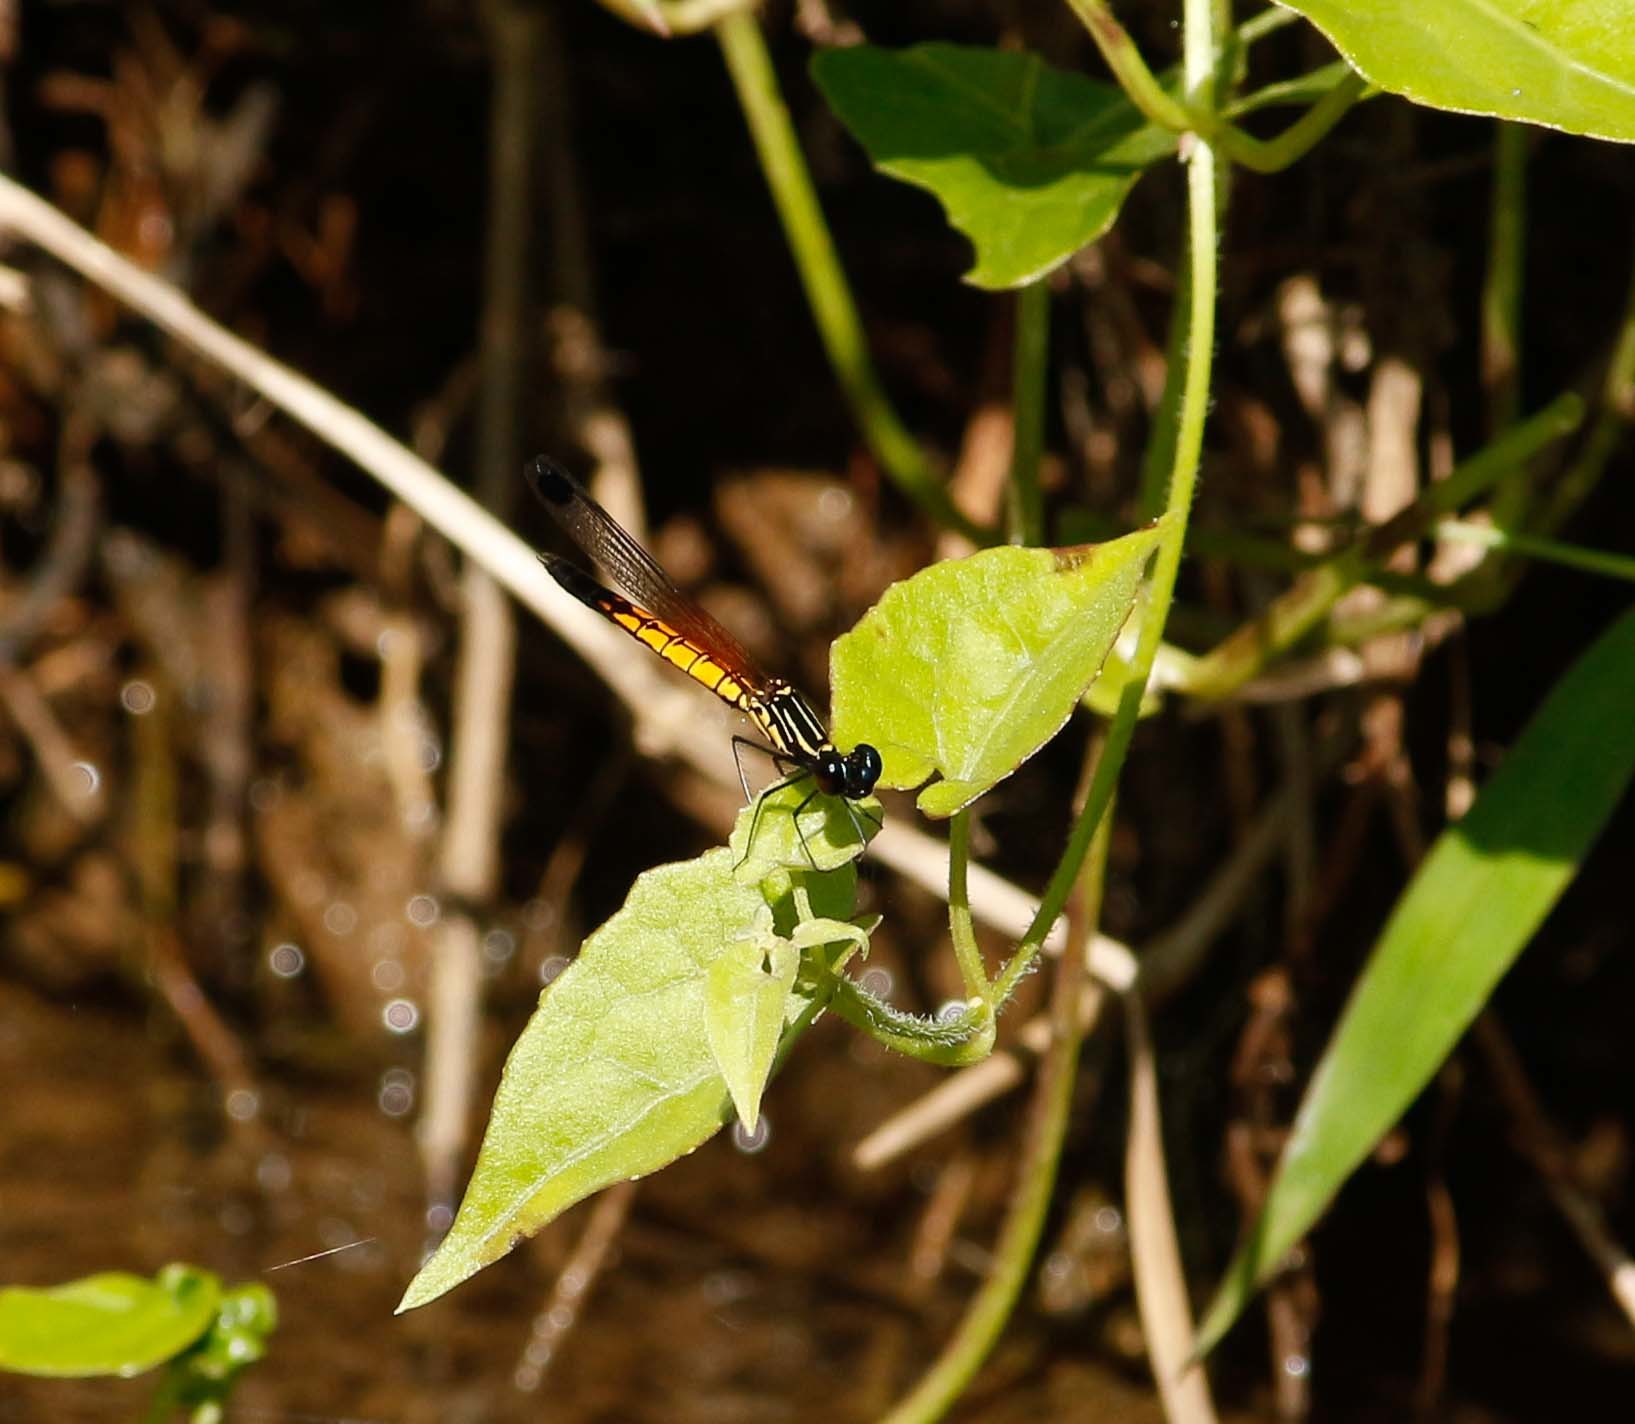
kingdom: Animalia
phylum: Arthropoda
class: Insecta
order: Odonata
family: Chlorocyphidae
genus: Libellago
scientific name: Libellago lineata
